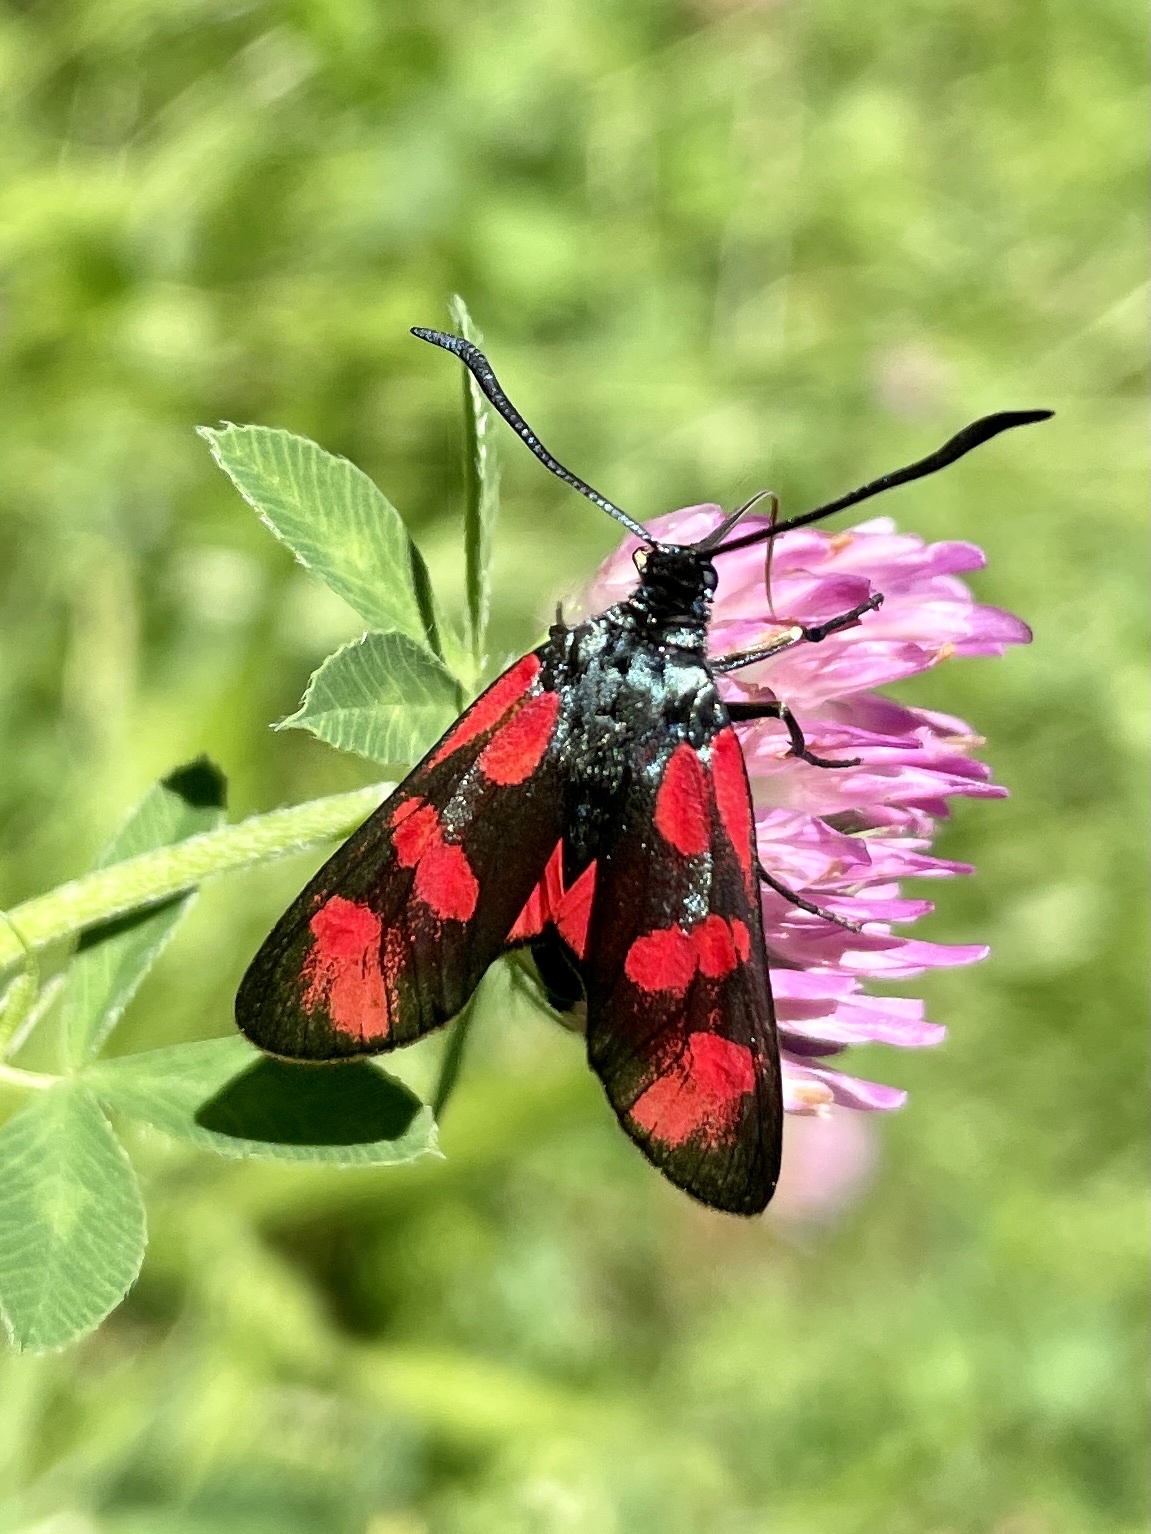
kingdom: Animalia
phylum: Arthropoda
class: Insecta
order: Lepidoptera
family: Zygaenidae
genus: Zygaena
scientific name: Zygaena filipendulae
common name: Six-spot burnet
